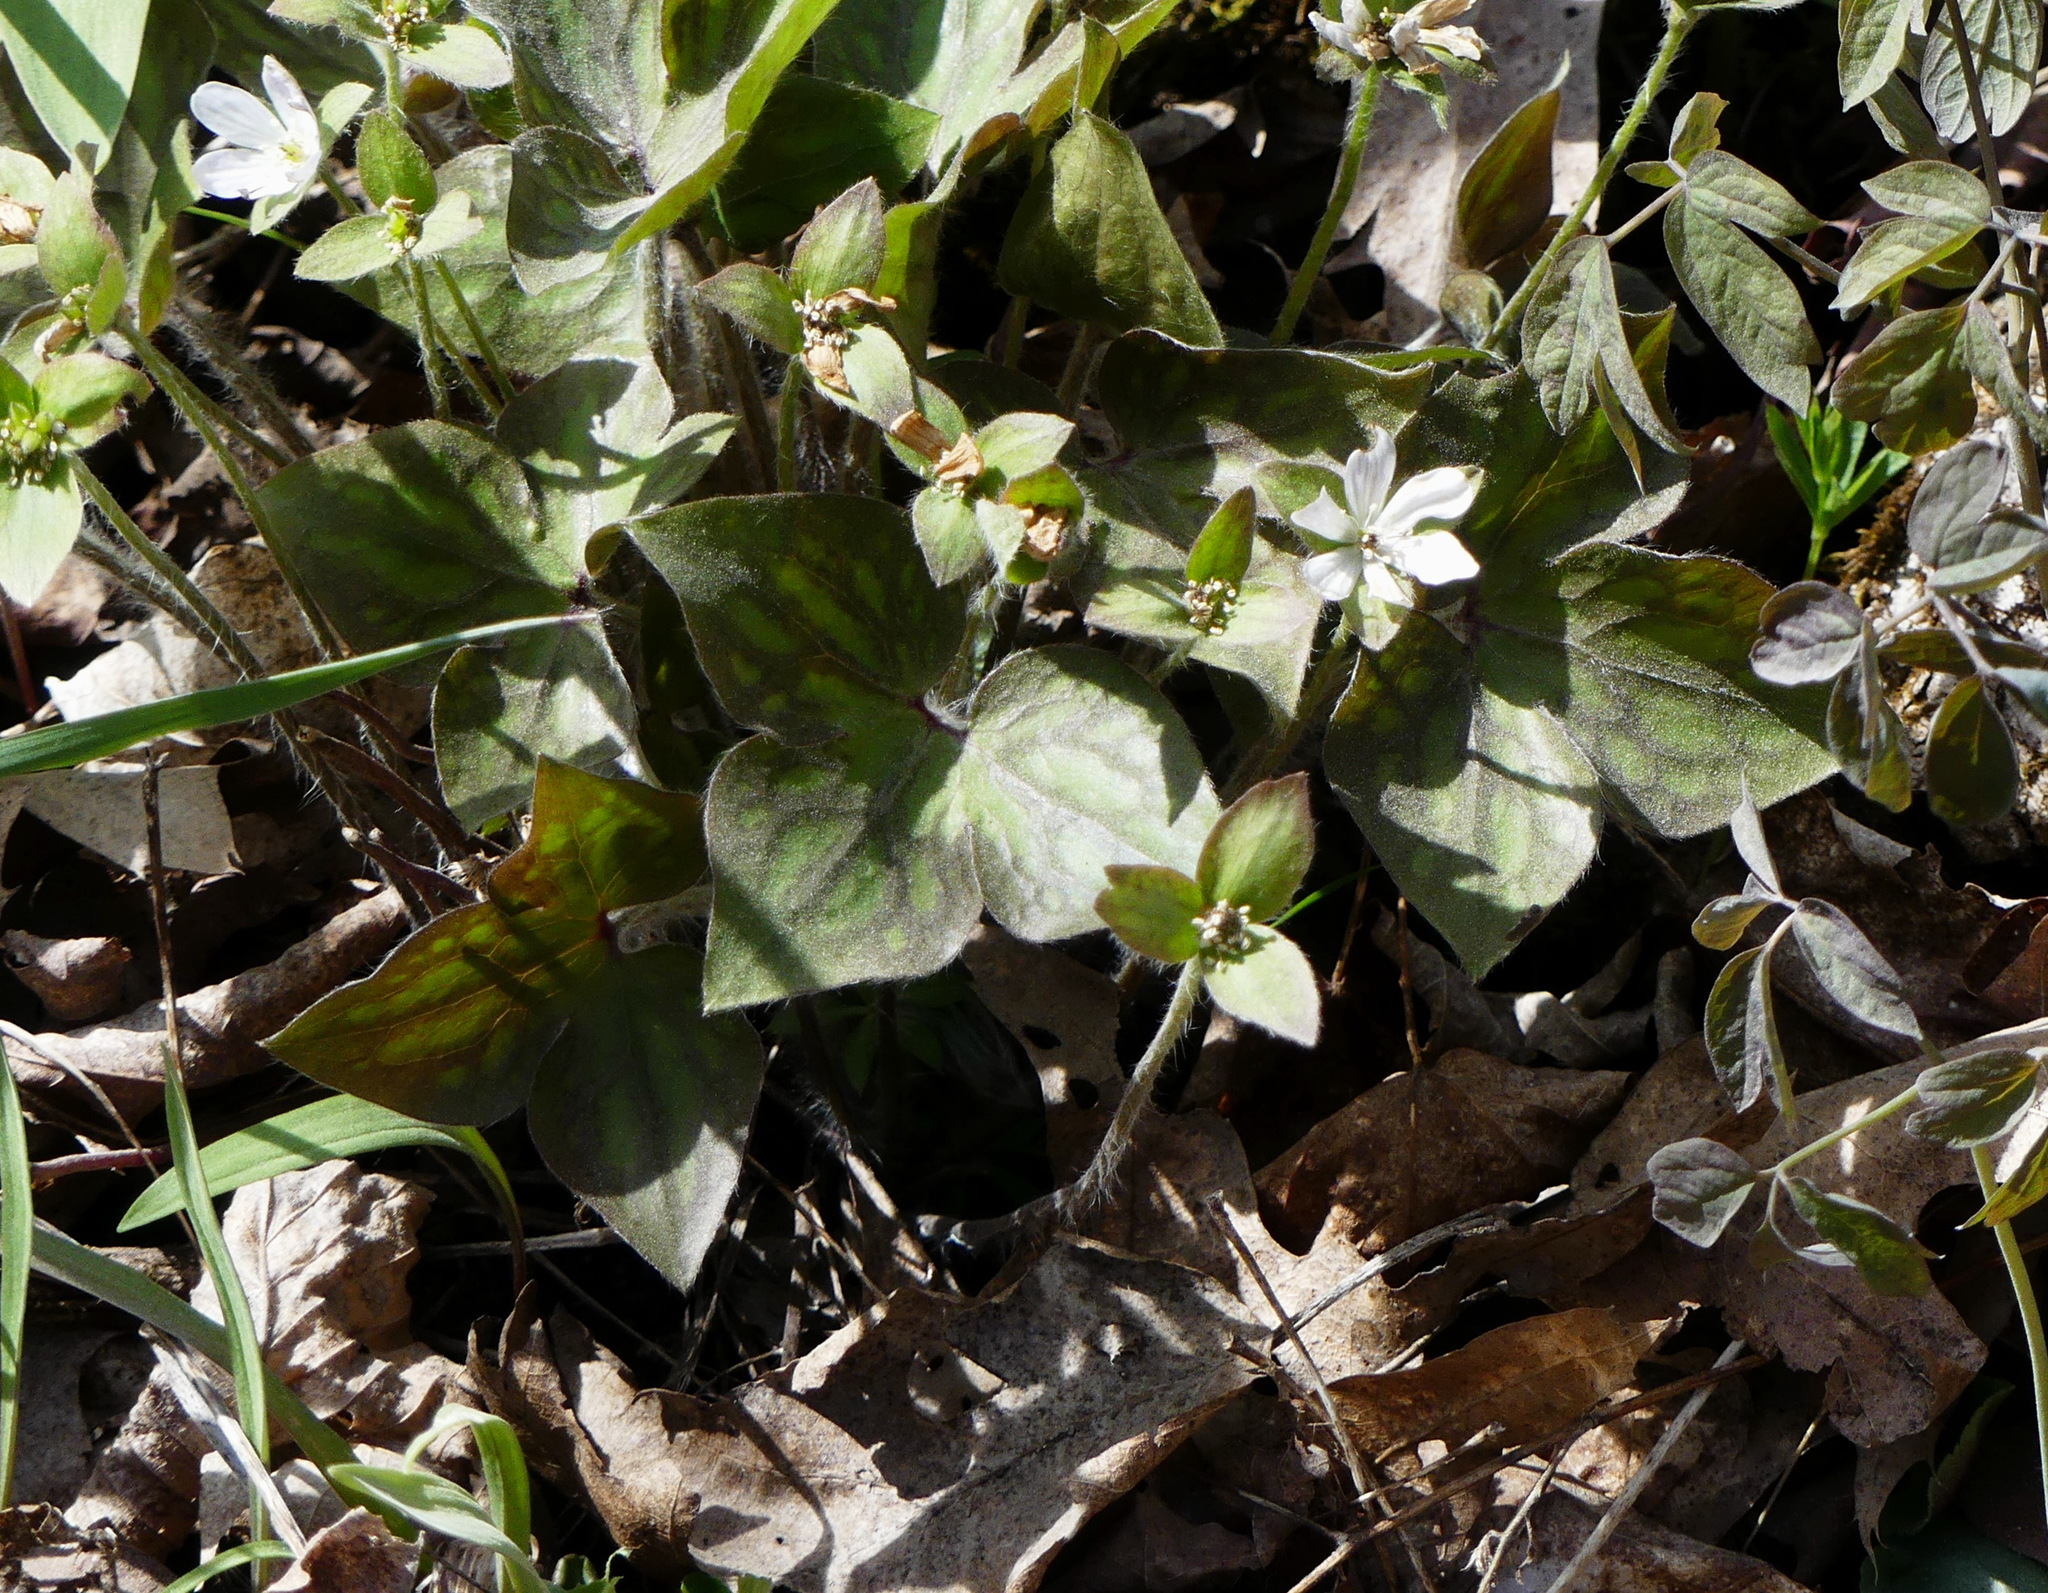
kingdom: Plantae
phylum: Tracheophyta
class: Magnoliopsida
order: Ranunculales
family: Ranunculaceae
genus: Hepatica
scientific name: Hepatica acutiloba
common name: Sharp-lobed hepatica
